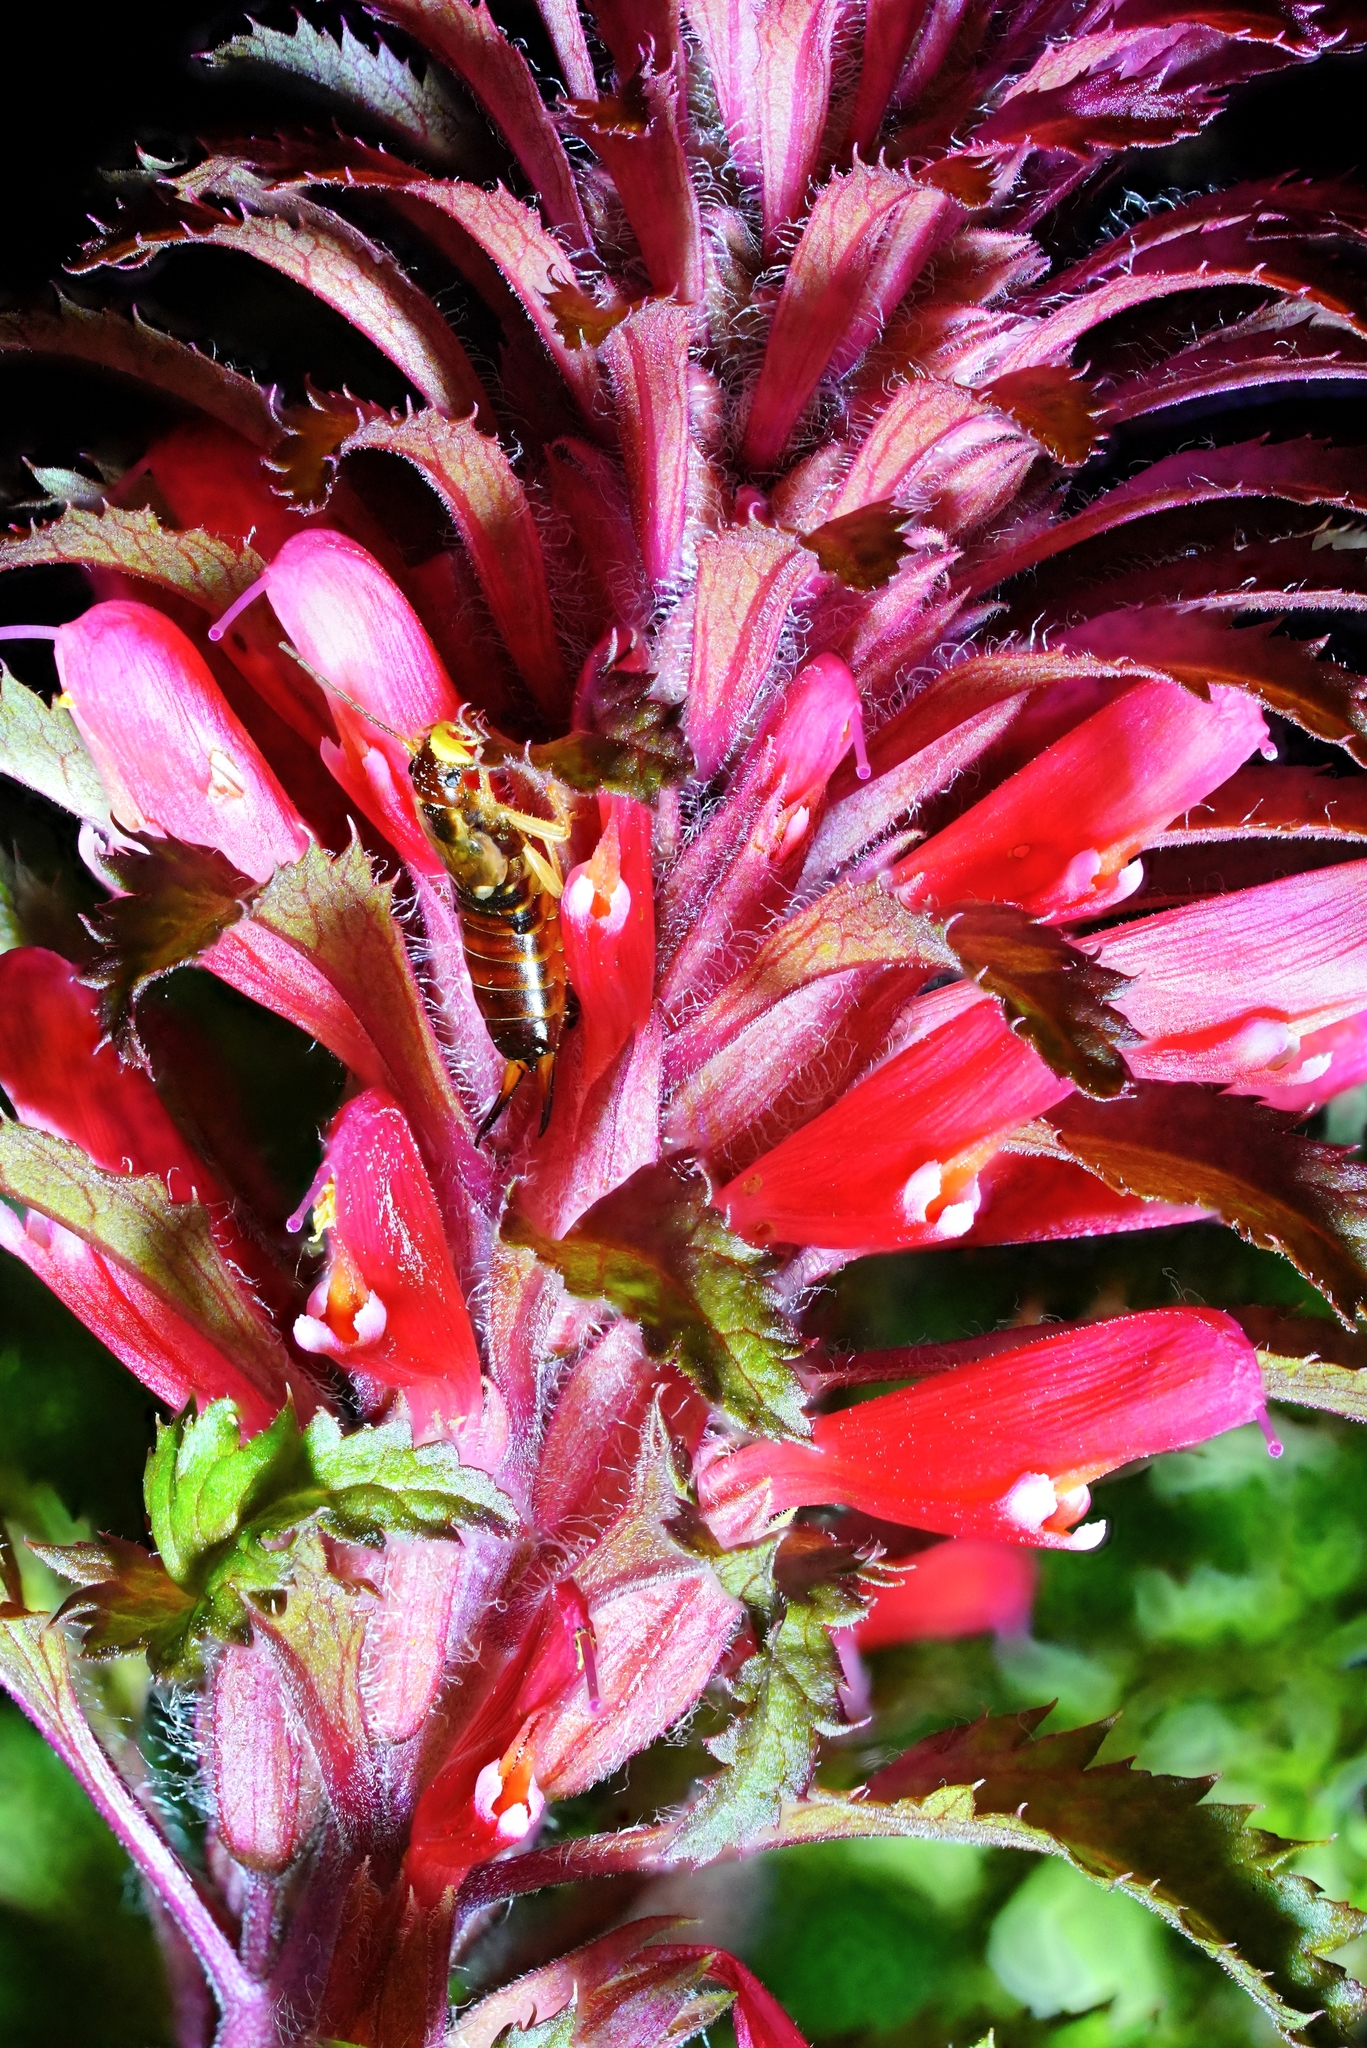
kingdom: Animalia
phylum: Arthropoda
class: Insecta
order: Dermaptera
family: Forficulidae
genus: Forficula
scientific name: Forficula
